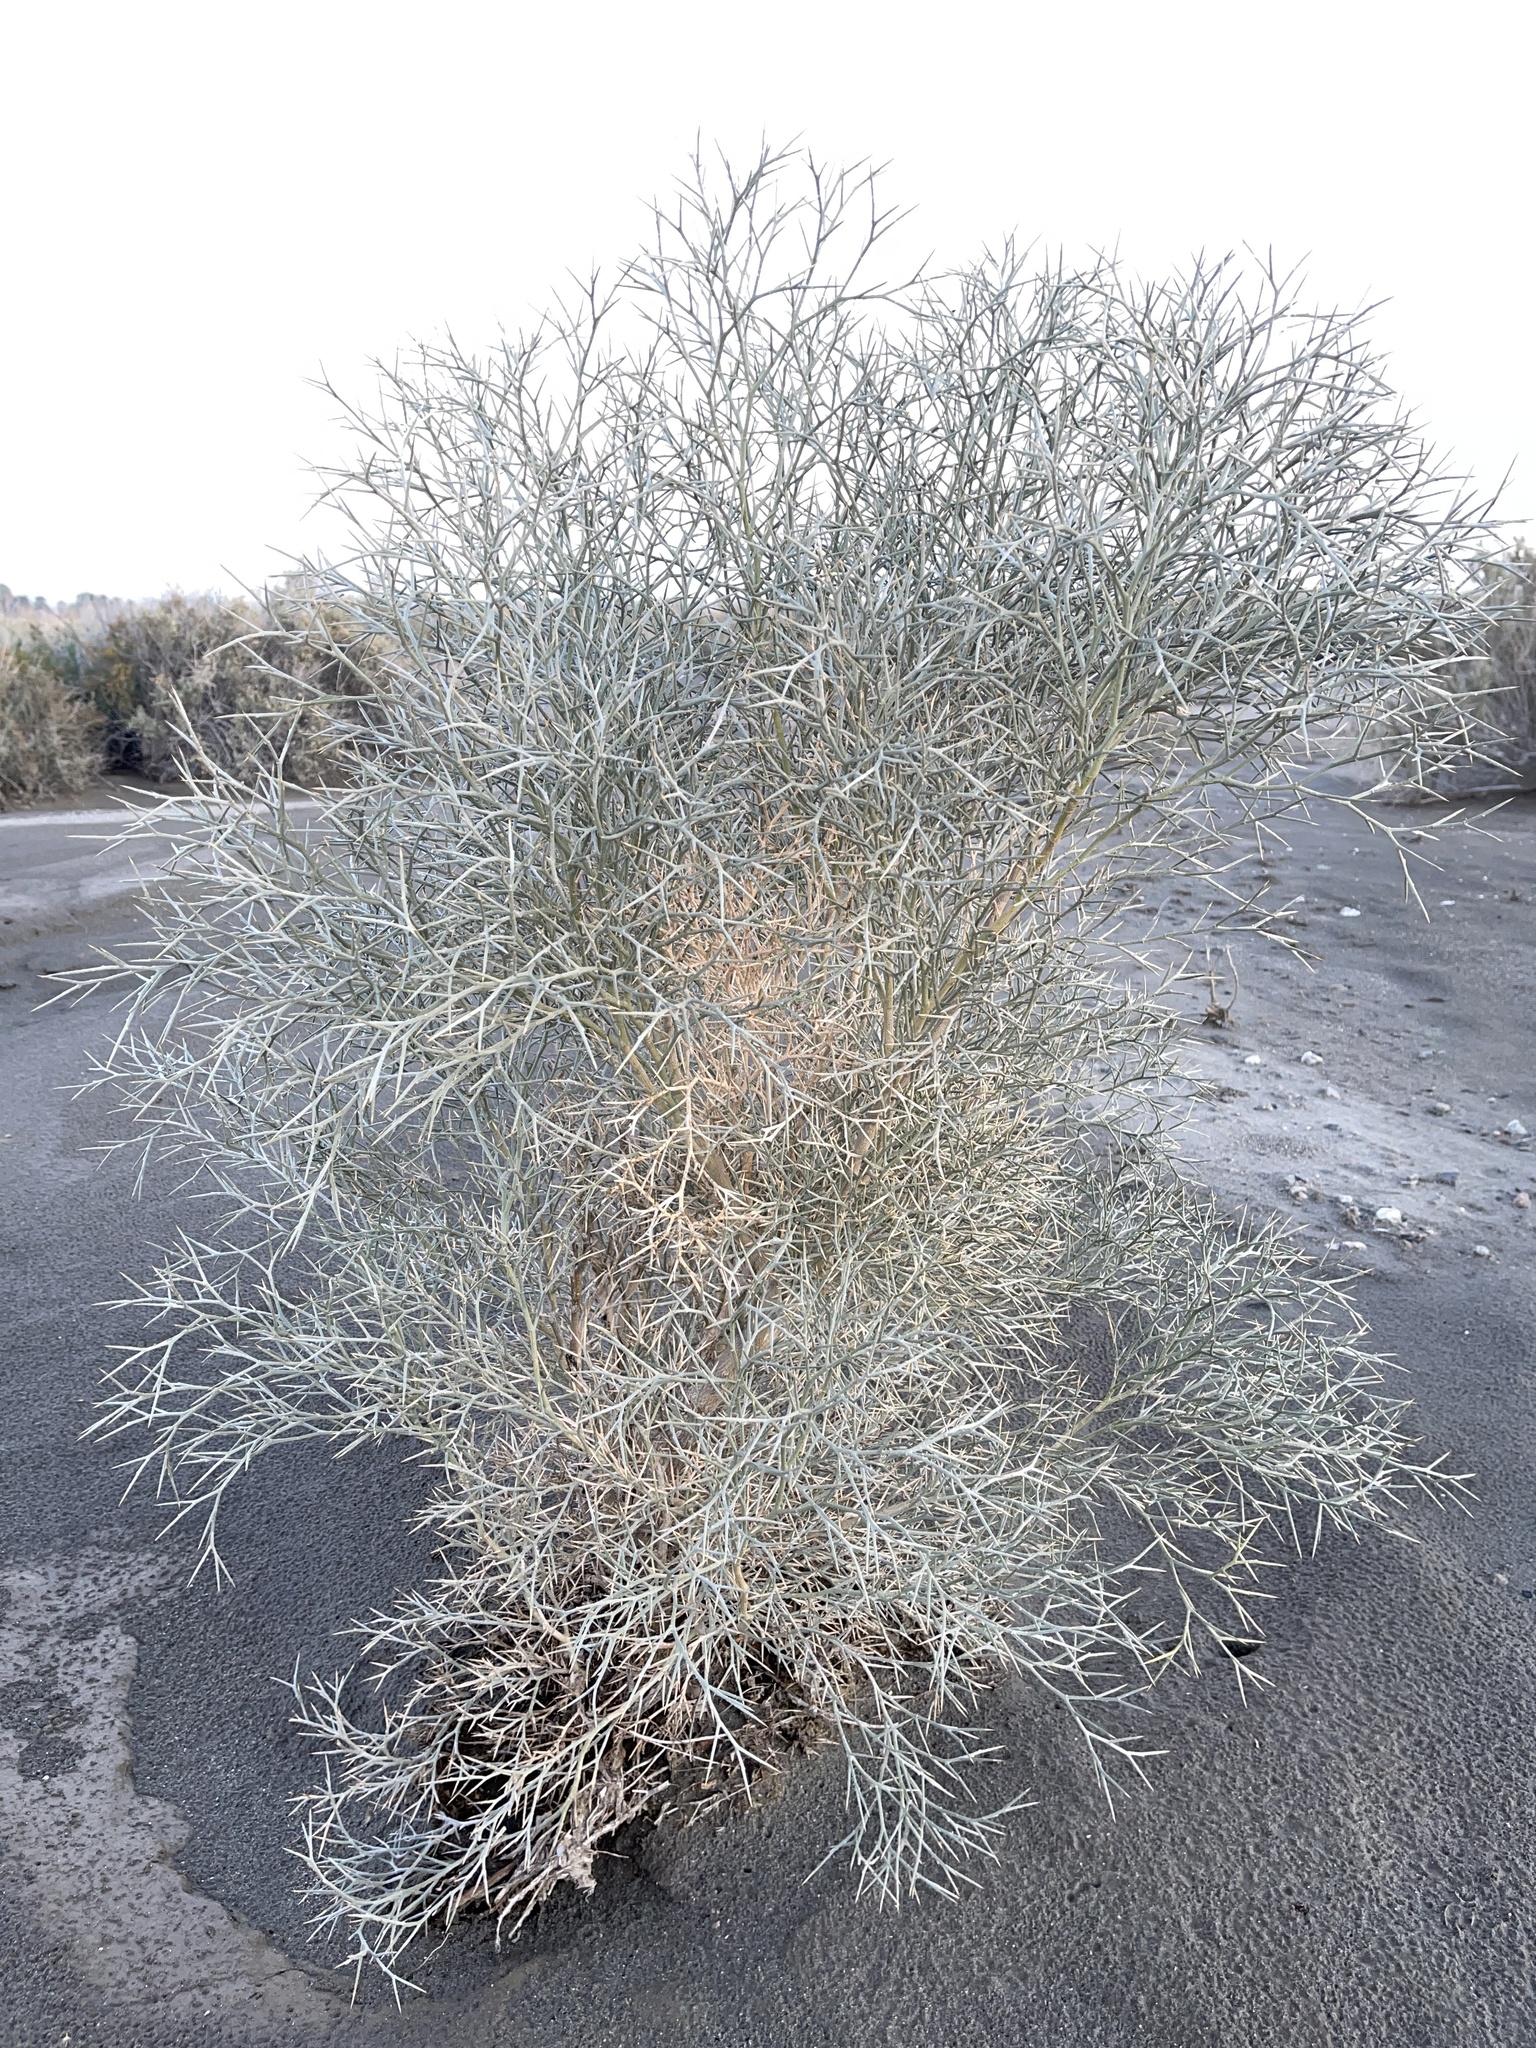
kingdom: Plantae
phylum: Tracheophyta
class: Magnoliopsida
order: Fabales
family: Fabaceae
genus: Psorothamnus
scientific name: Psorothamnus spinosus
